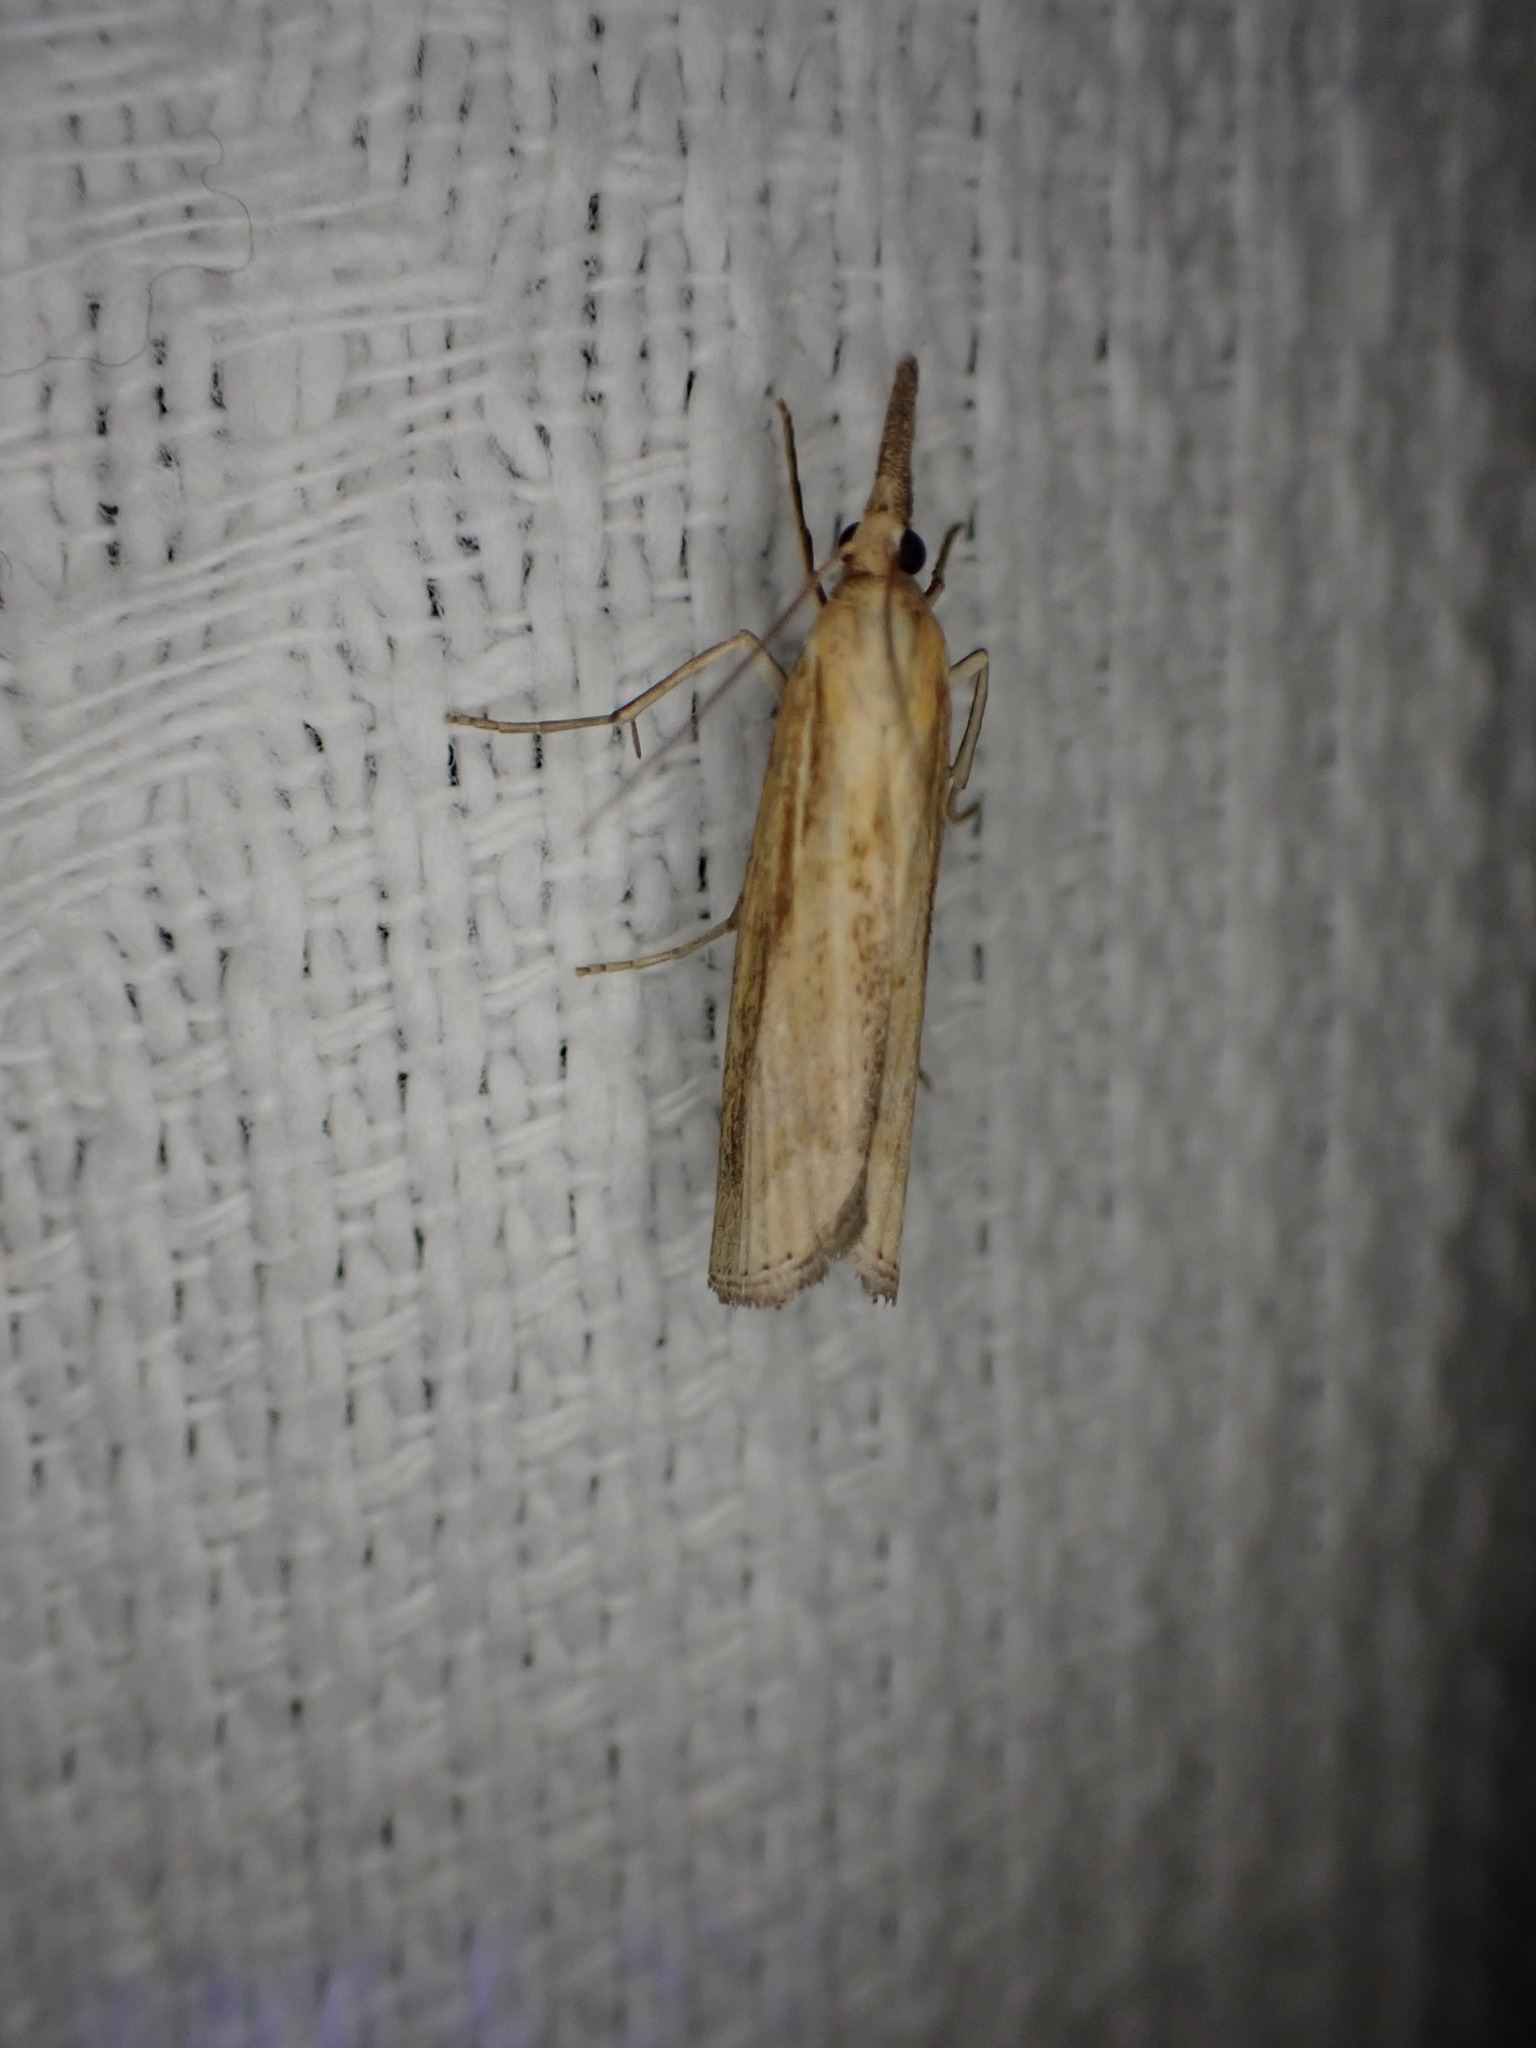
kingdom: Animalia
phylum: Arthropoda
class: Insecta
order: Lepidoptera
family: Crambidae
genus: Agriphila
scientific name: Agriphila tristellus
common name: Common grass-veneer
